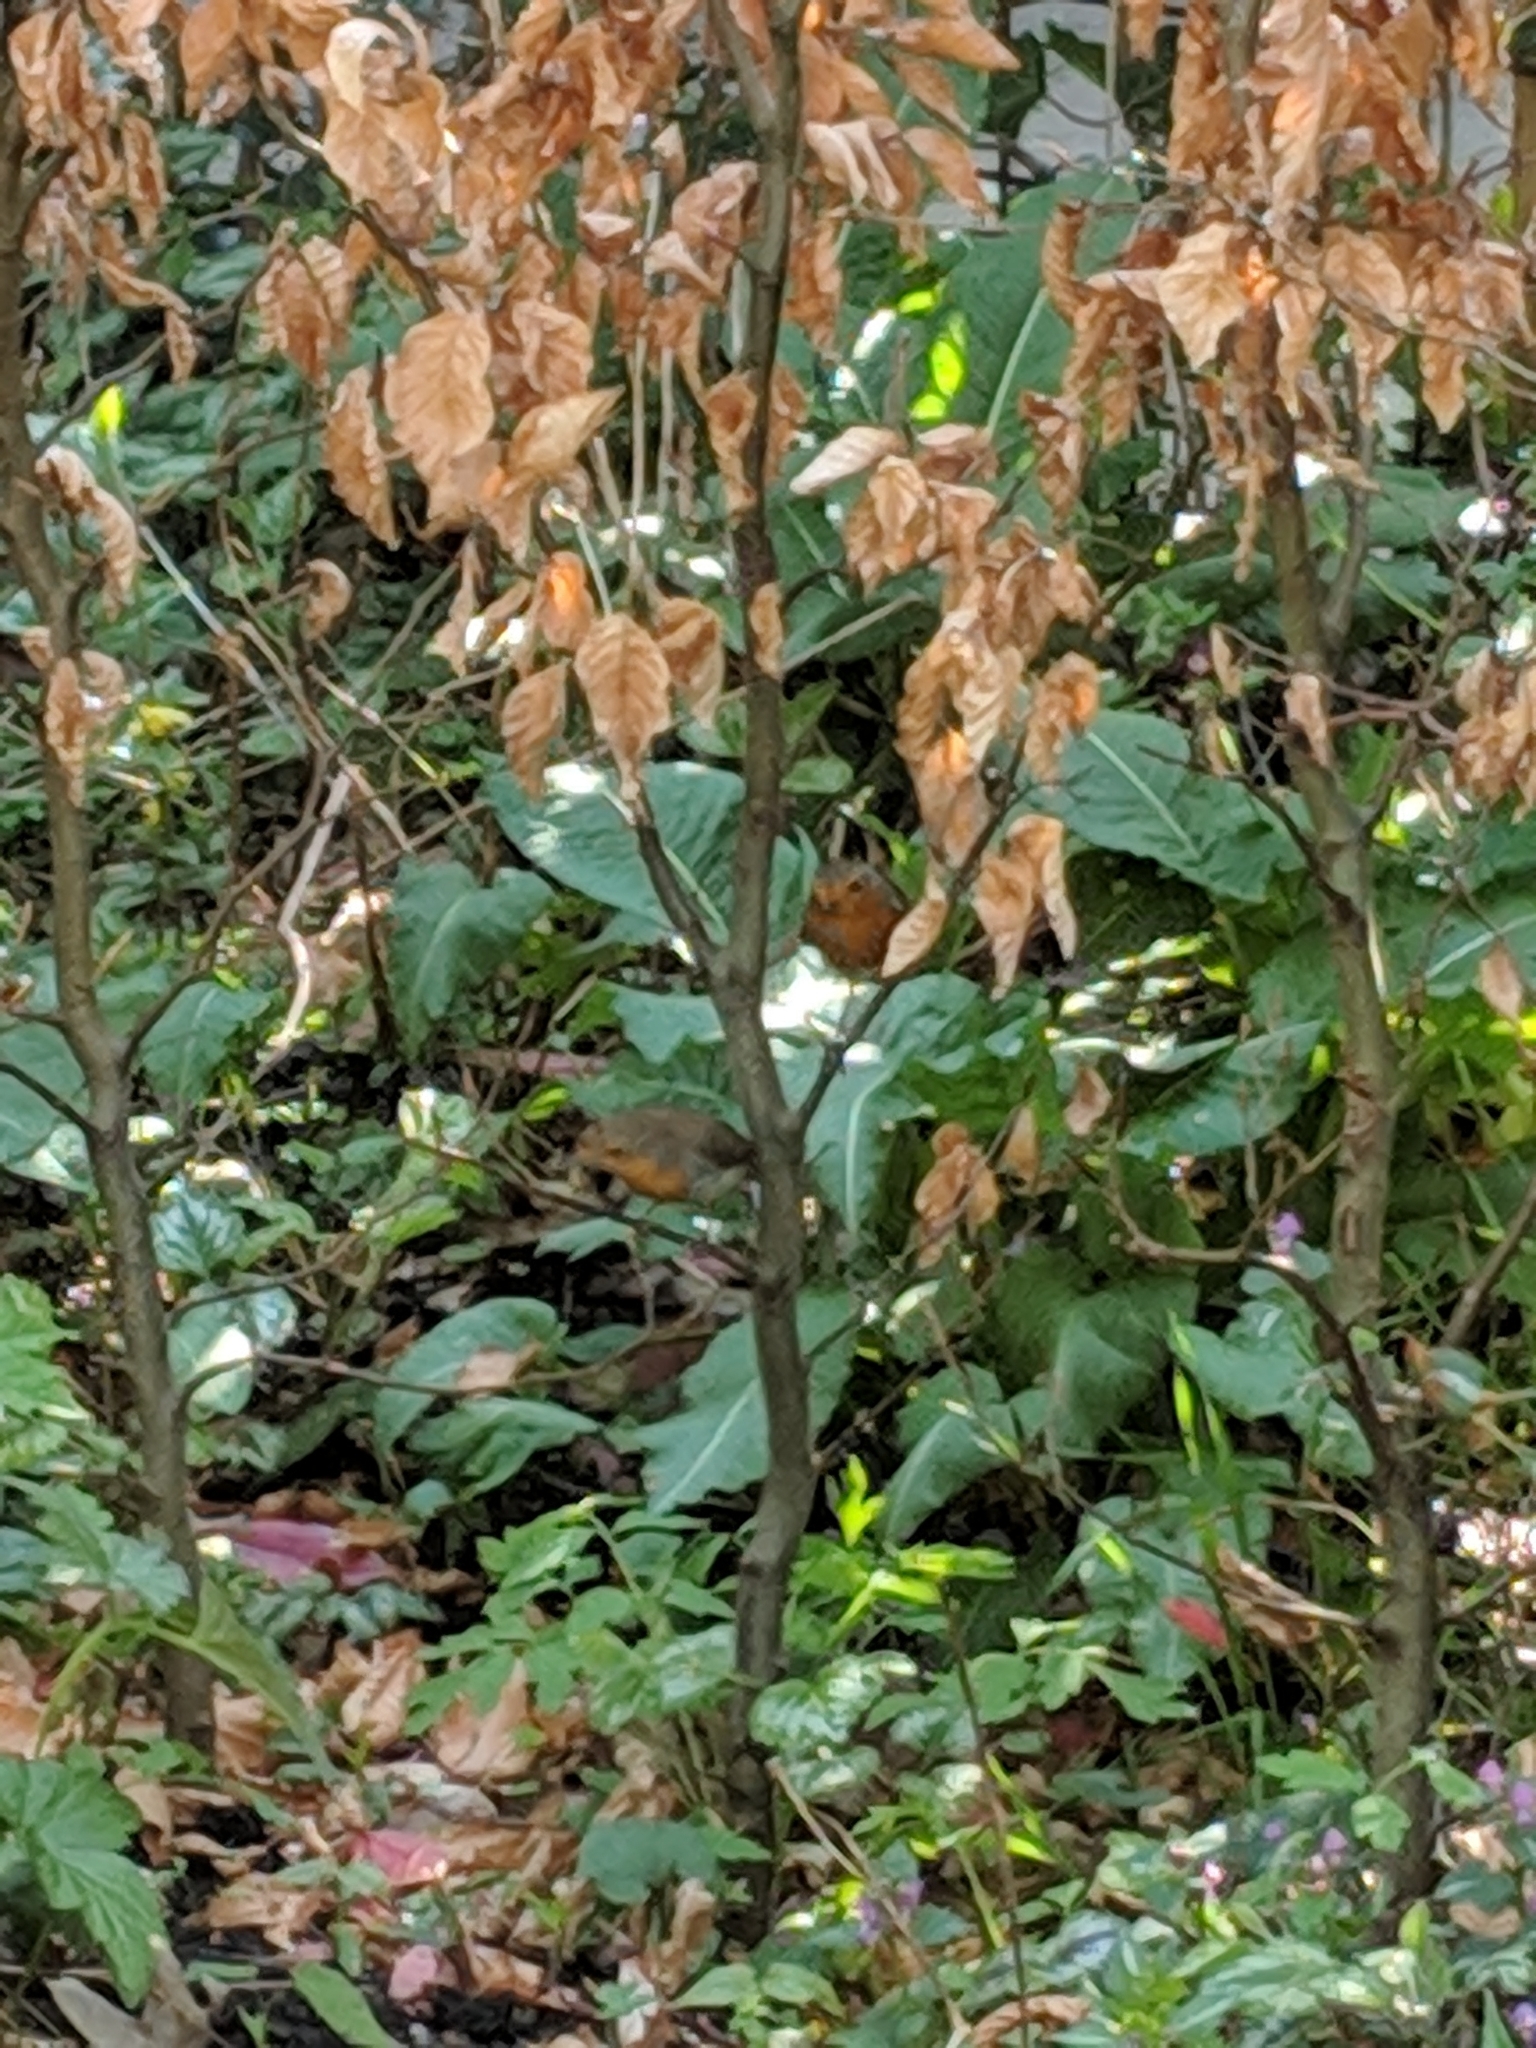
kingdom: Animalia
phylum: Chordata
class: Aves
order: Passeriformes
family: Muscicapidae
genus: Erithacus
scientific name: Erithacus rubecula
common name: European robin
